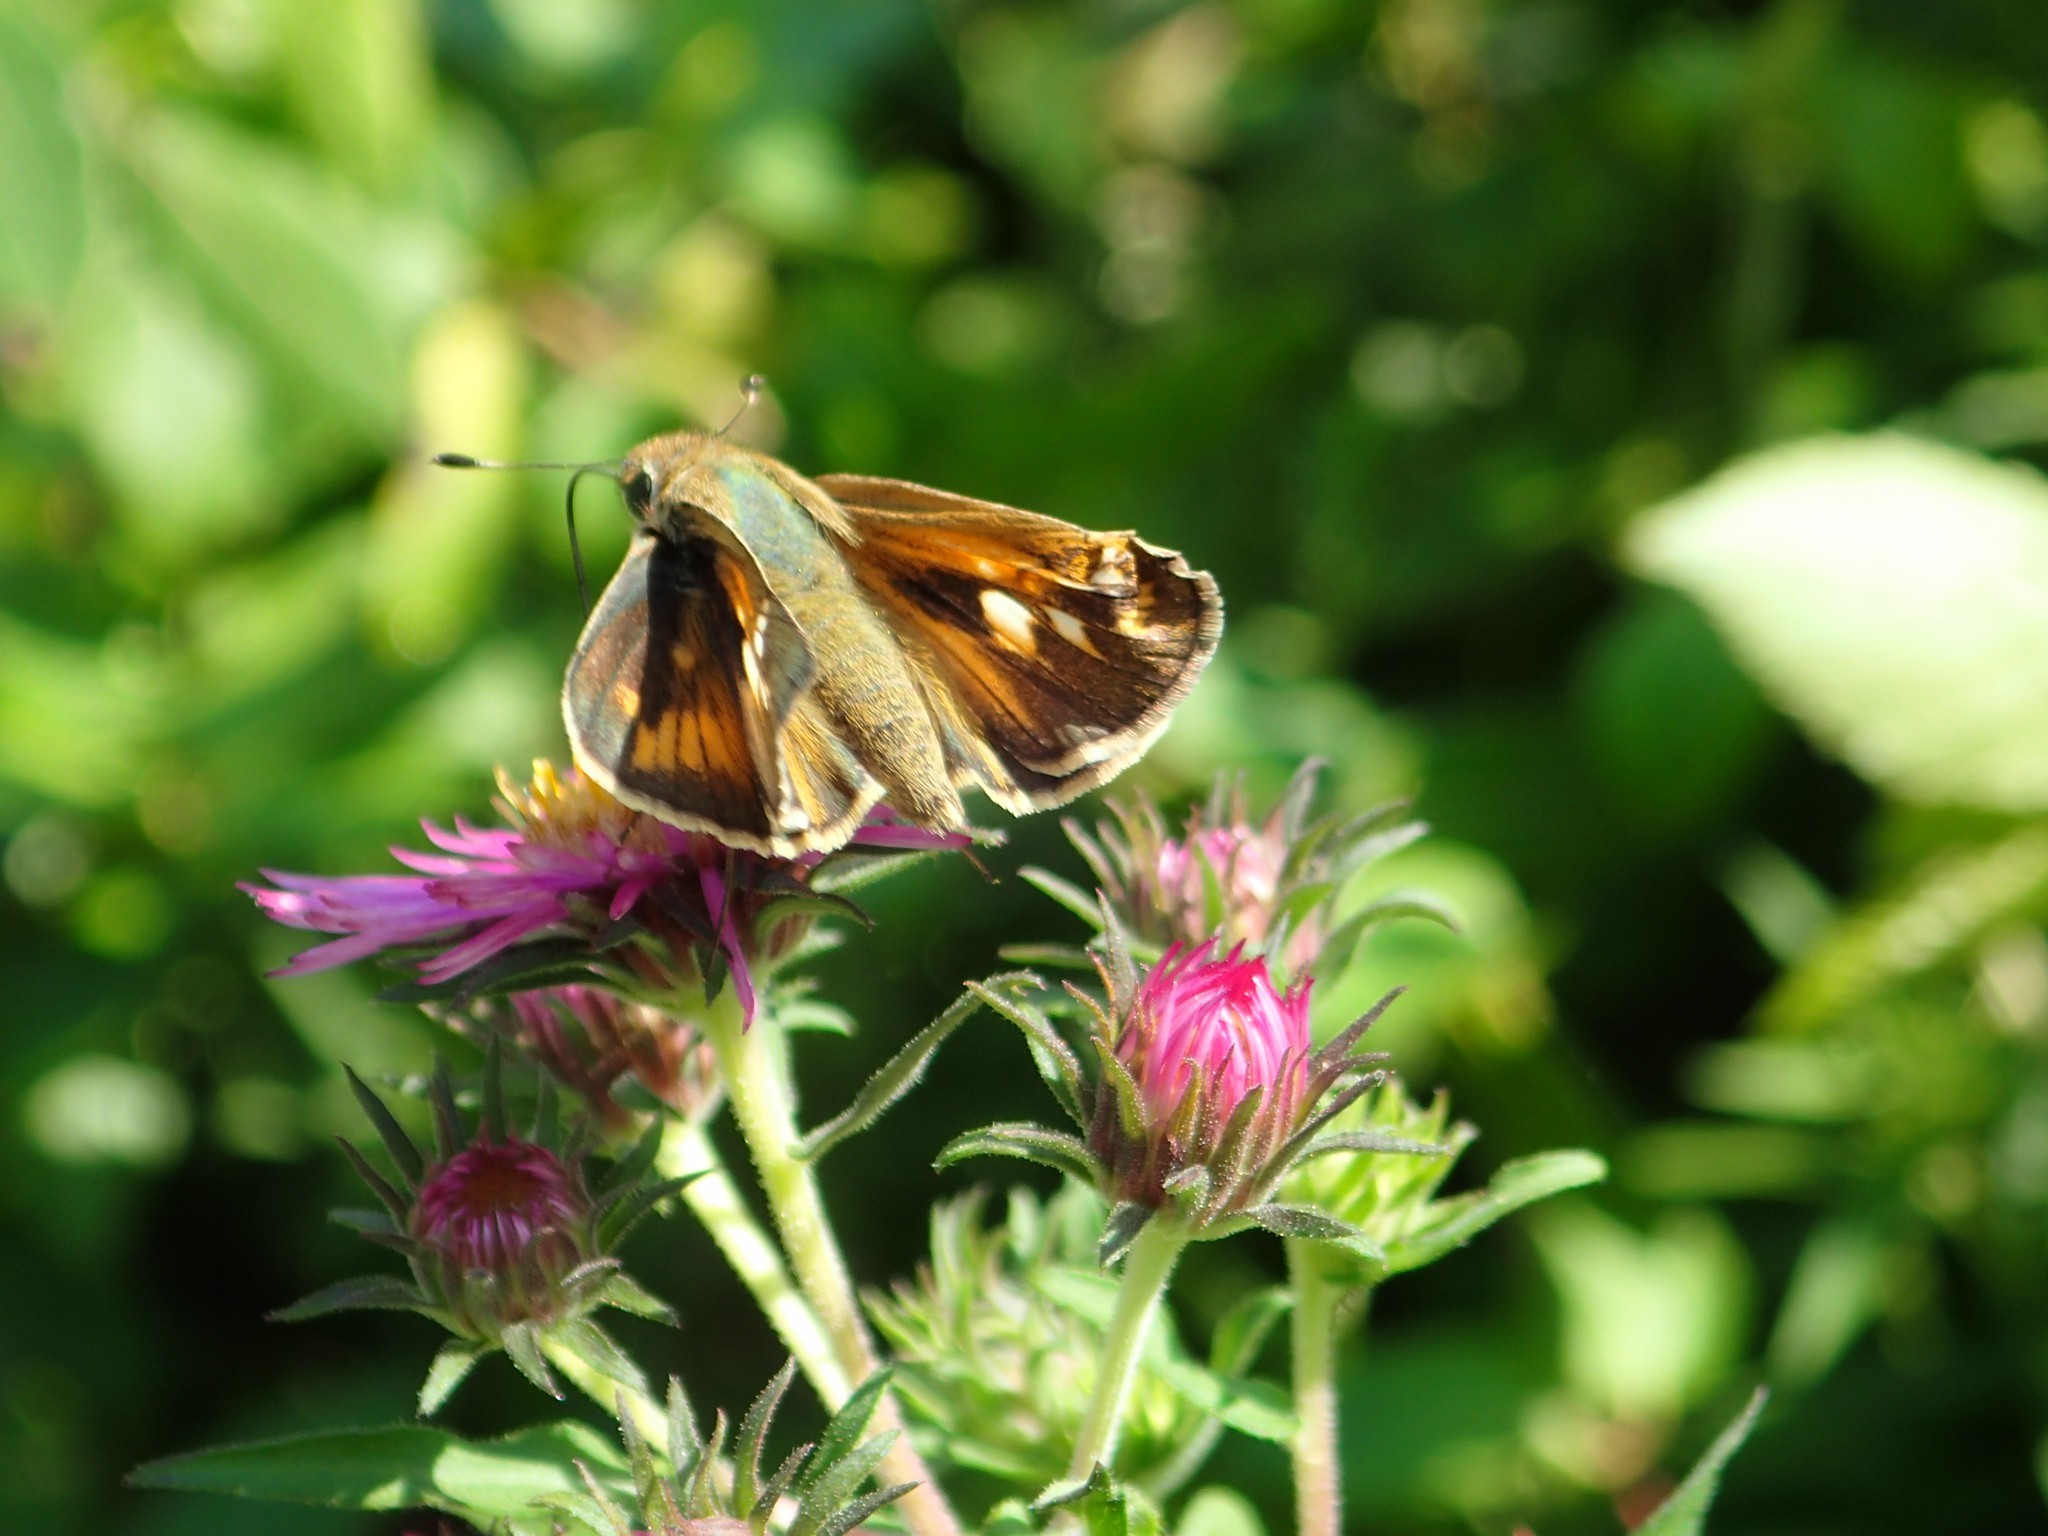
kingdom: Animalia
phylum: Arthropoda
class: Insecta
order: Lepidoptera
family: Hesperiidae
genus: Atalopedes
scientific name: Atalopedes
